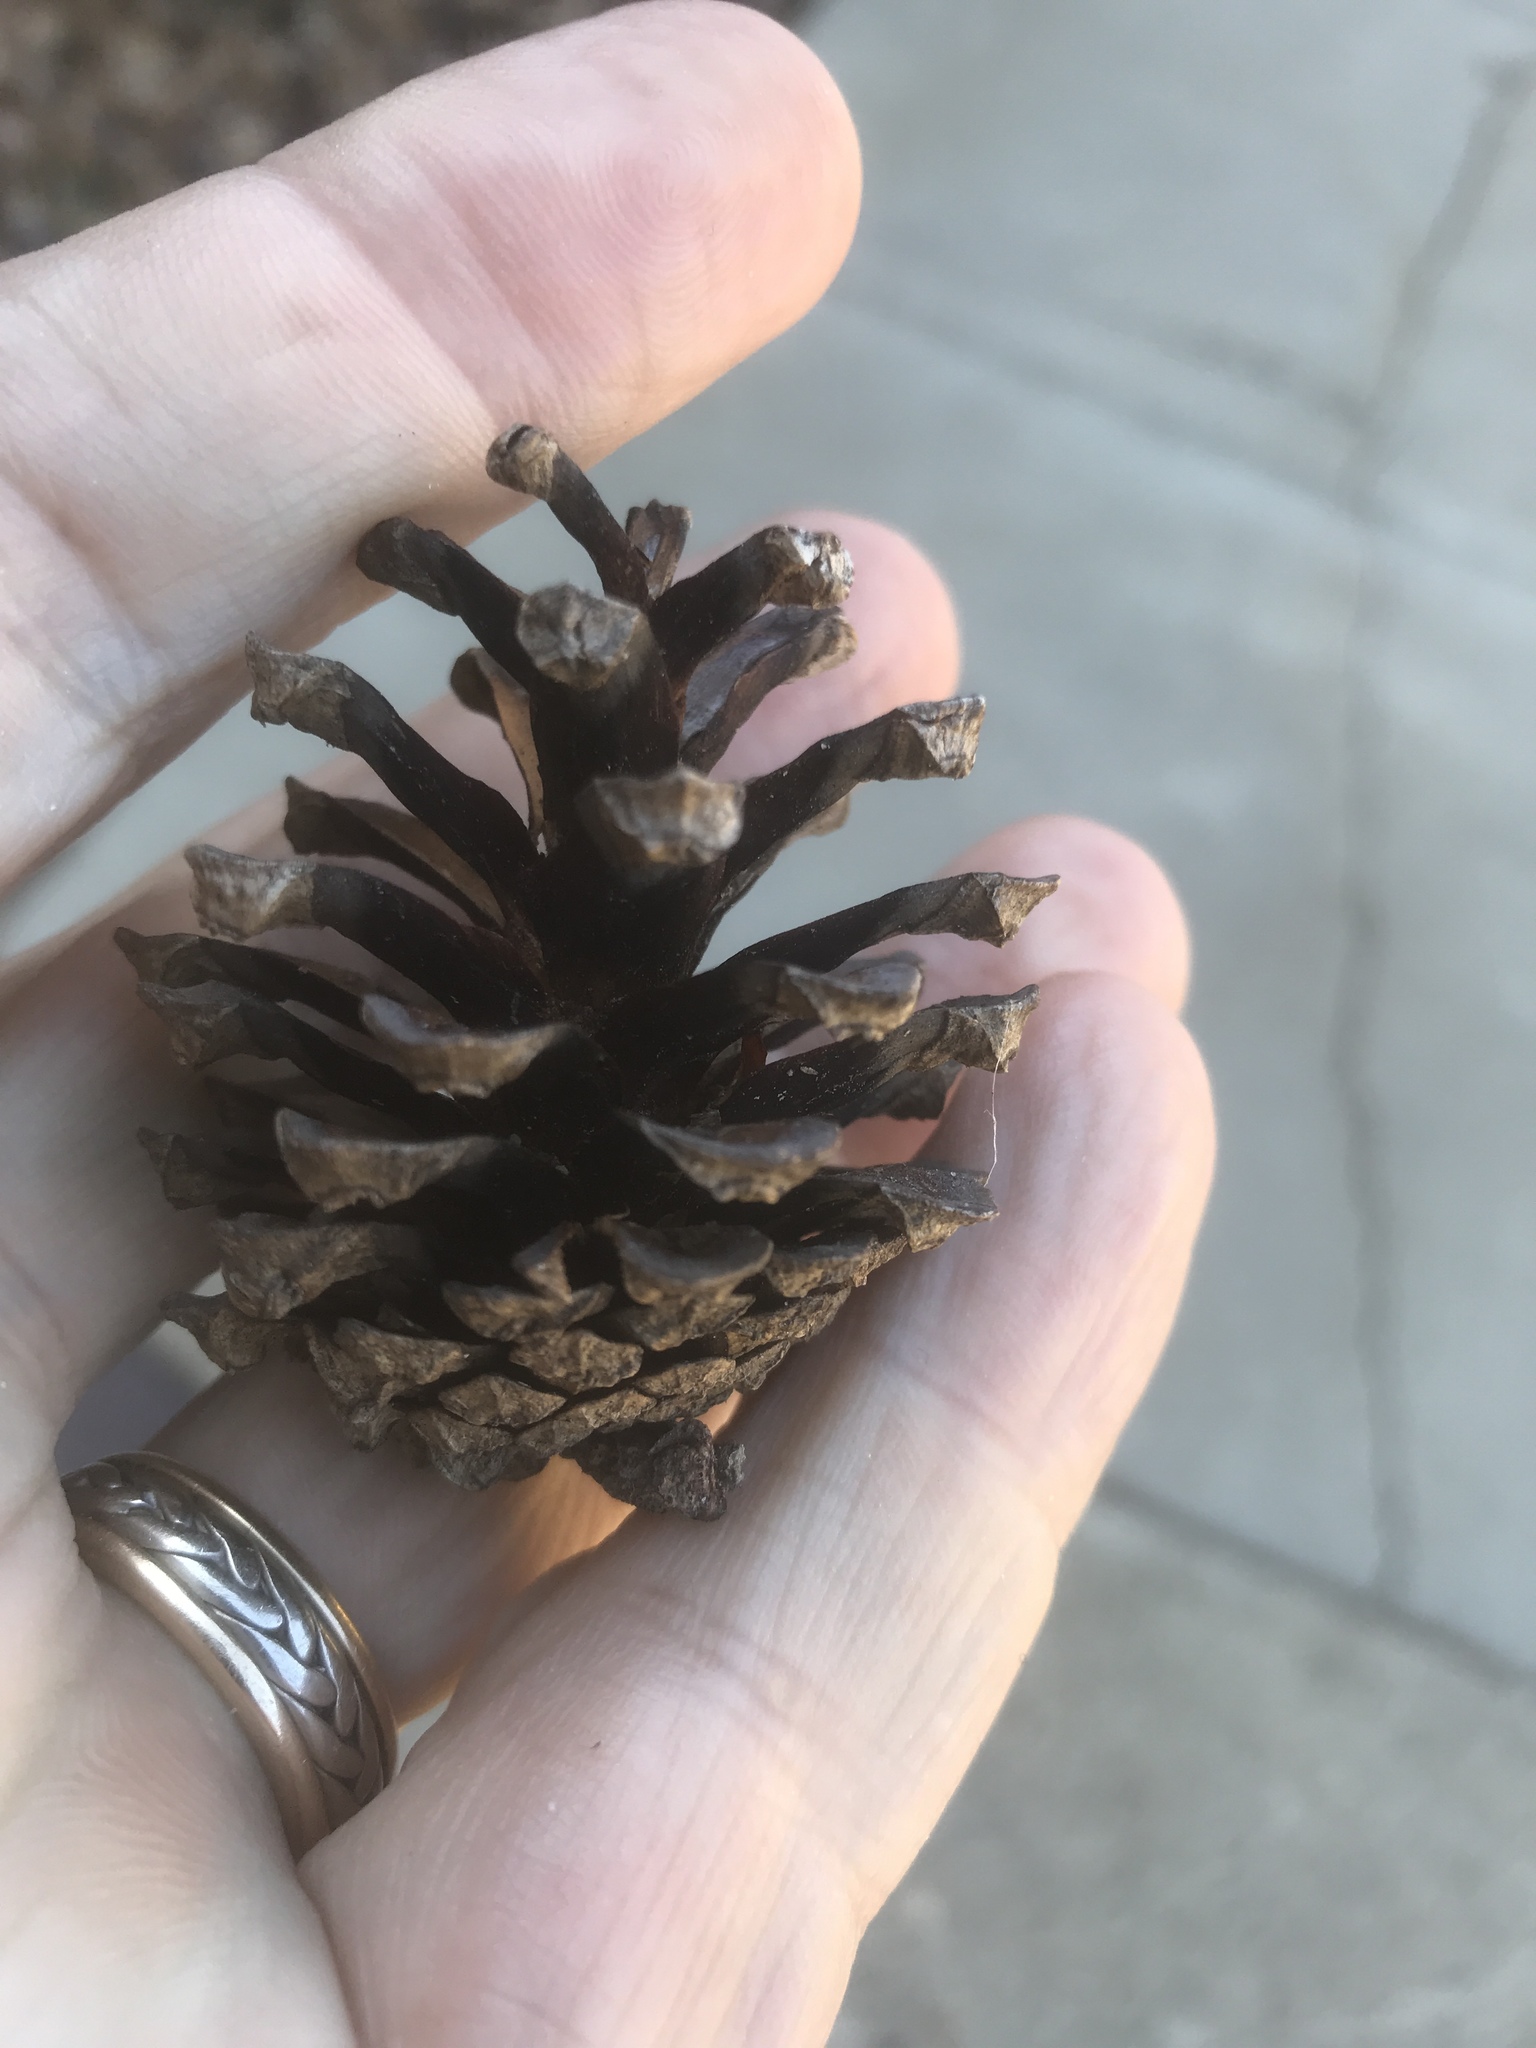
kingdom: Plantae
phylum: Tracheophyta
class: Pinopsida
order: Pinales
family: Pinaceae
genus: Pinus
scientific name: Pinus sylvestris
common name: Scots pine
